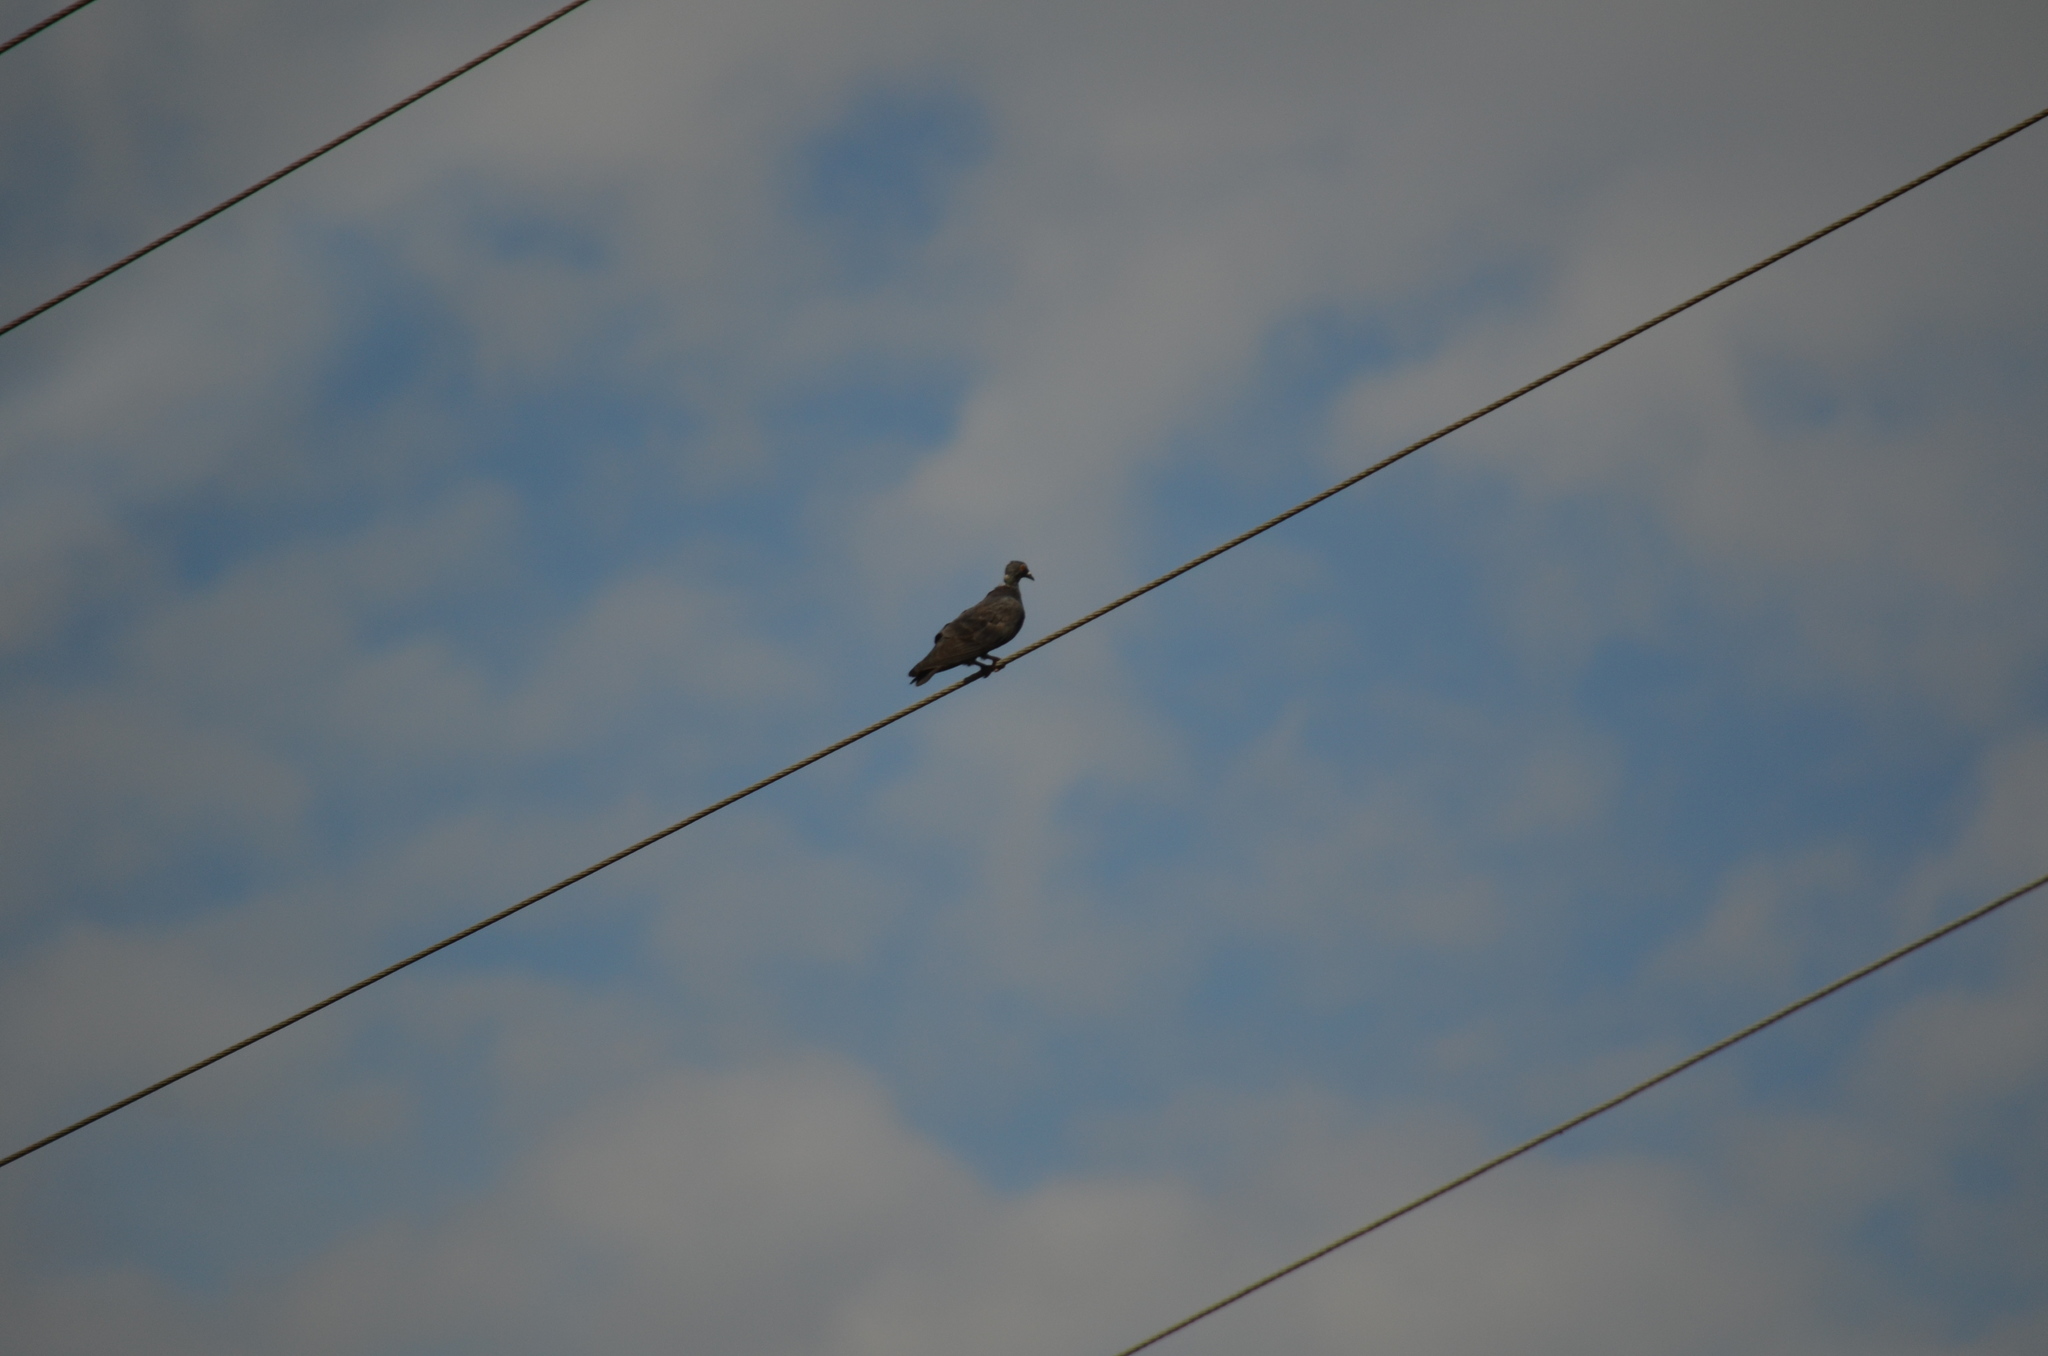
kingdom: Animalia
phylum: Chordata
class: Aves
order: Columbiformes
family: Columbidae
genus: Columba
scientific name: Columba livia
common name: Rock pigeon
